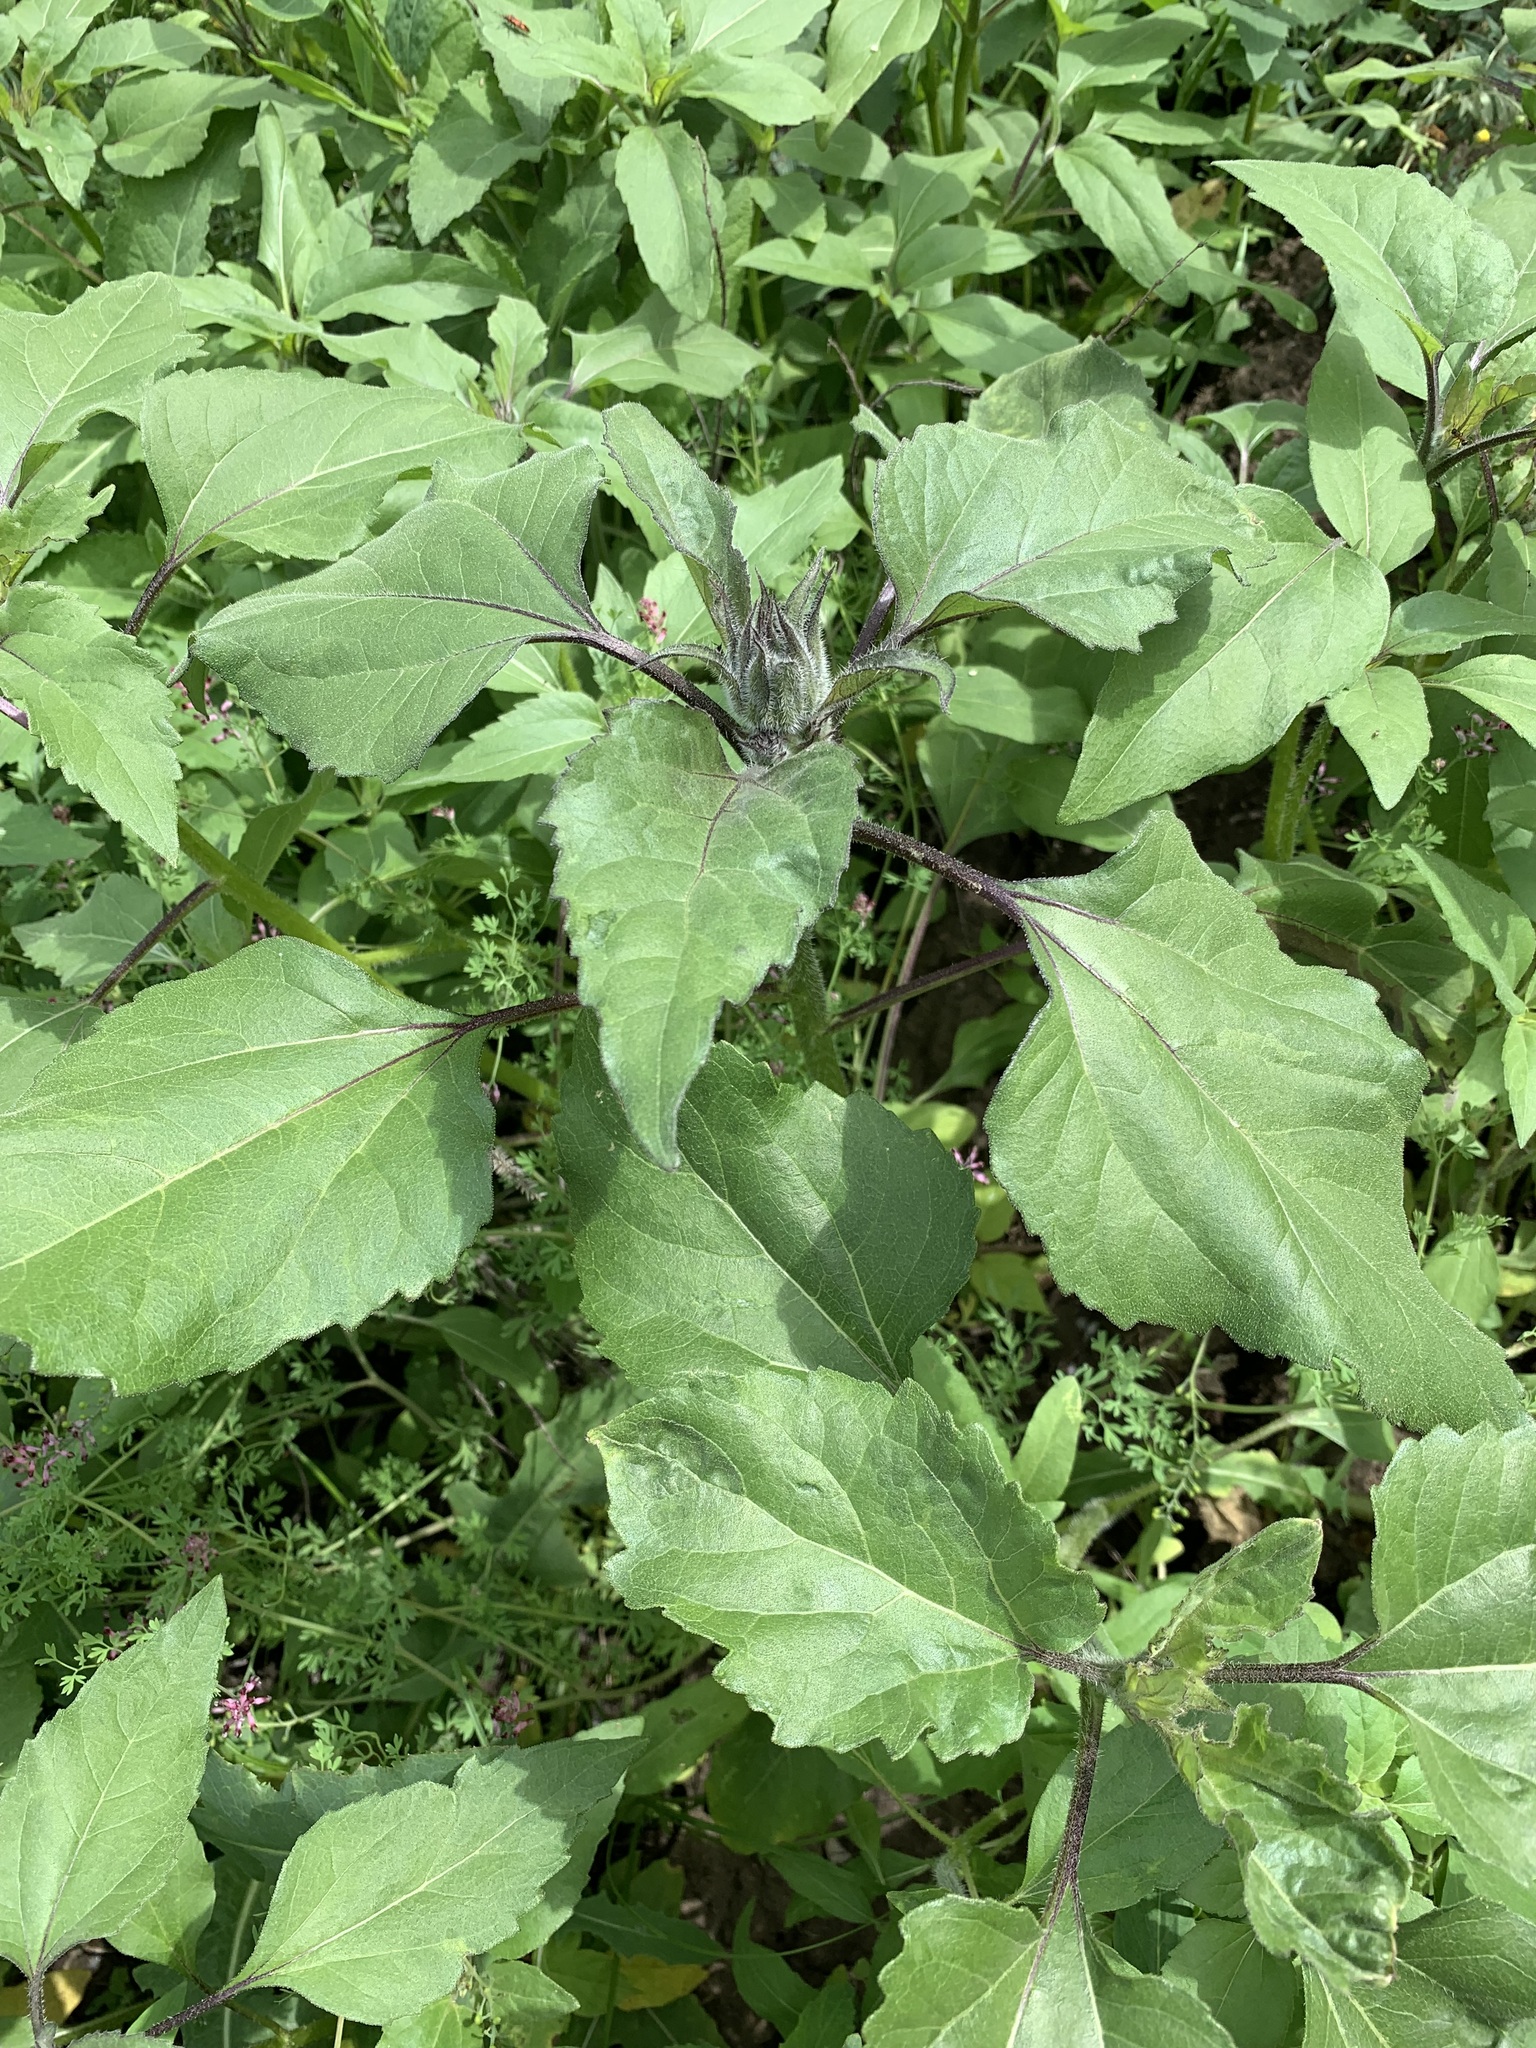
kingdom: Plantae
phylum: Tracheophyta
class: Magnoliopsida
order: Asterales
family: Asteraceae
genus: Cyclachaena
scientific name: Cyclachaena xanthiifolia
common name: Giant sumpweed
